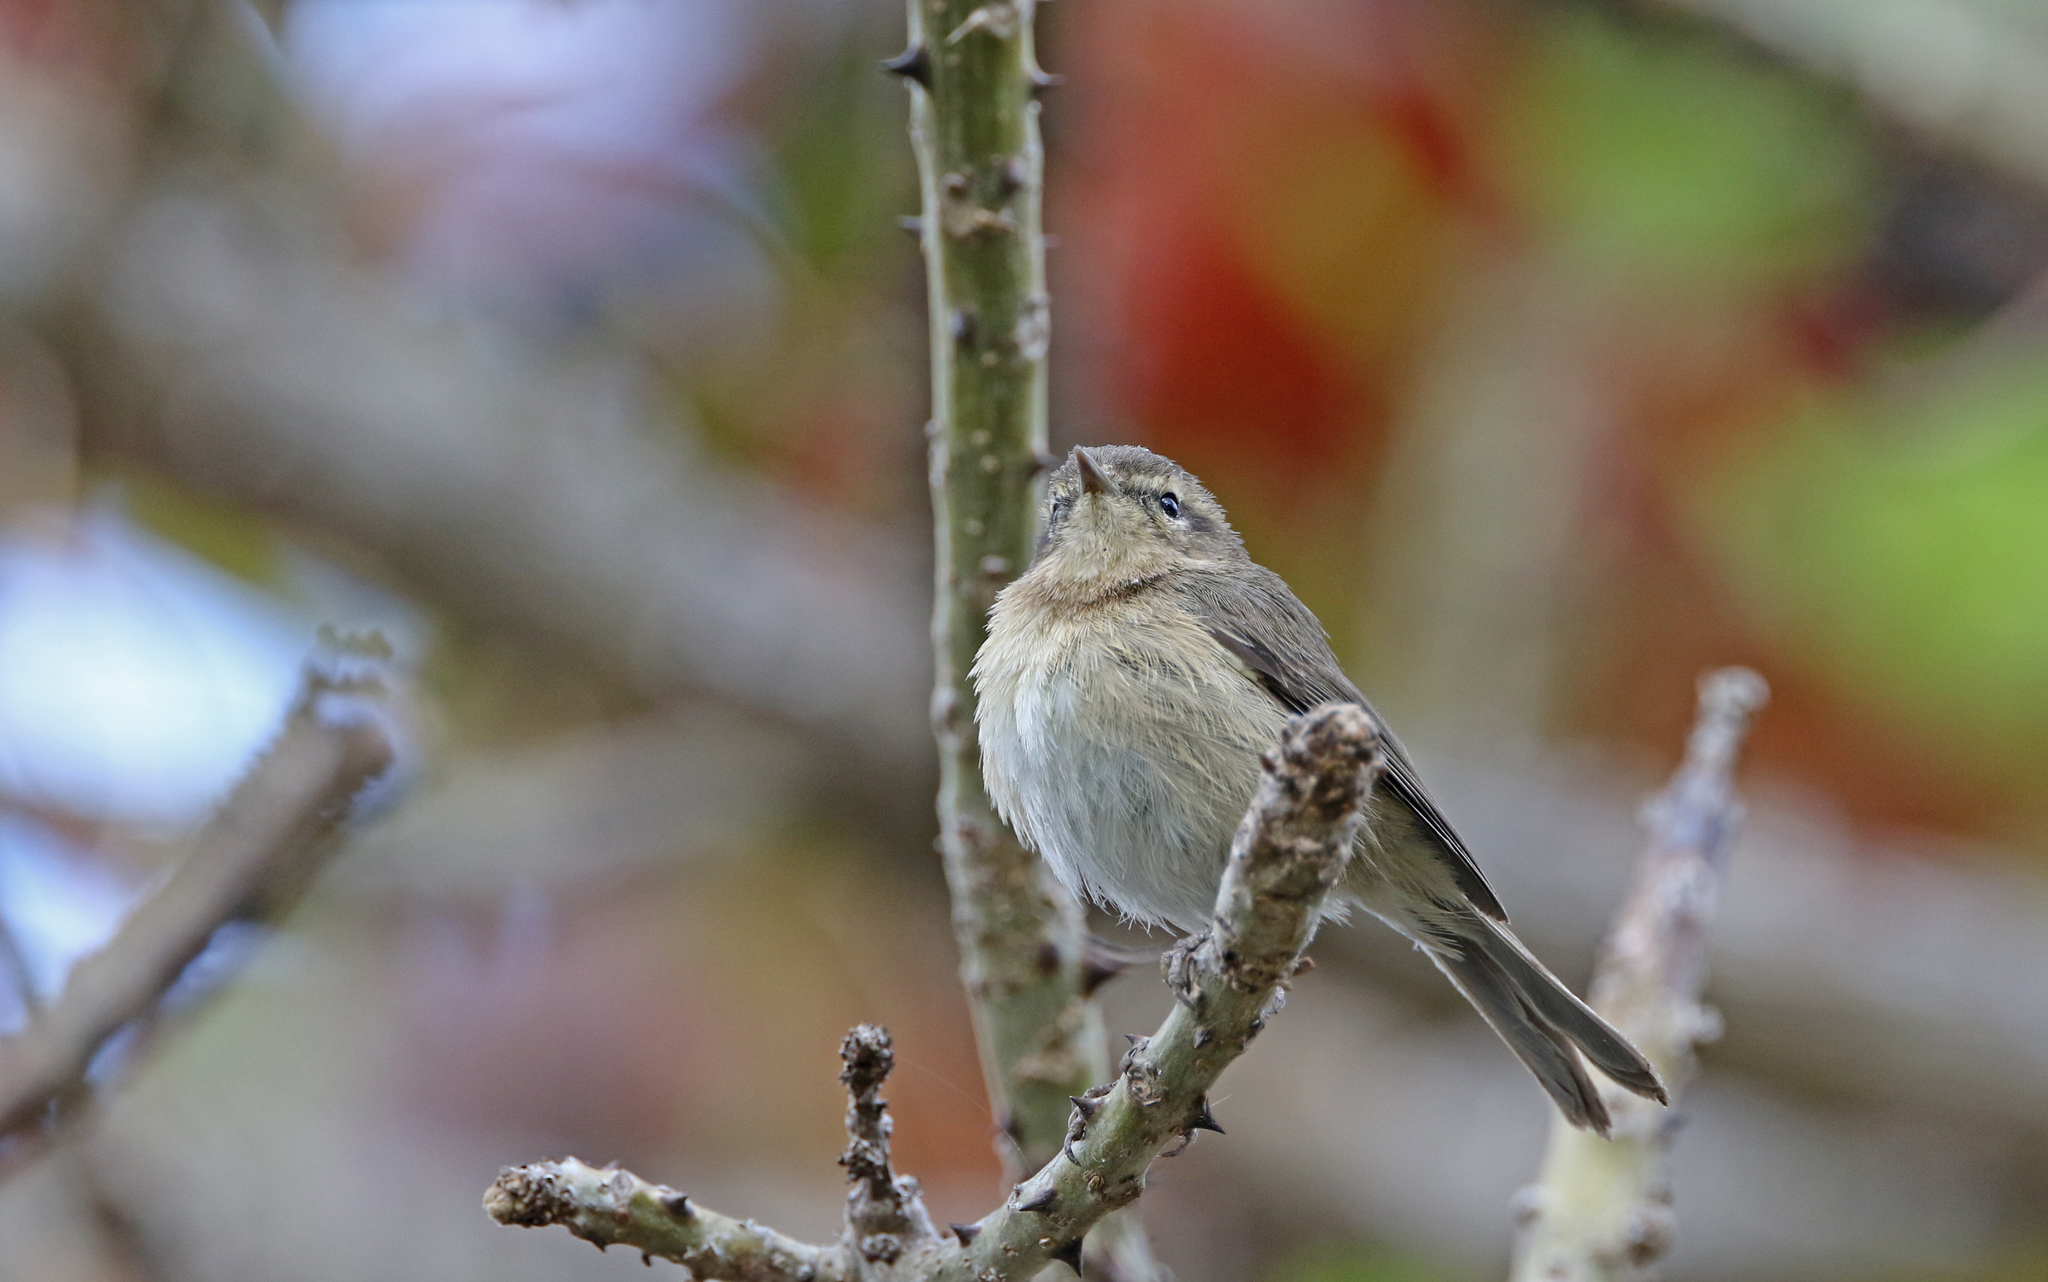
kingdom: Animalia
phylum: Chordata
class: Aves
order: Passeriformes
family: Phylloscopidae
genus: Phylloscopus
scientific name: Phylloscopus canariensis
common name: Canary islands chiffchaff
